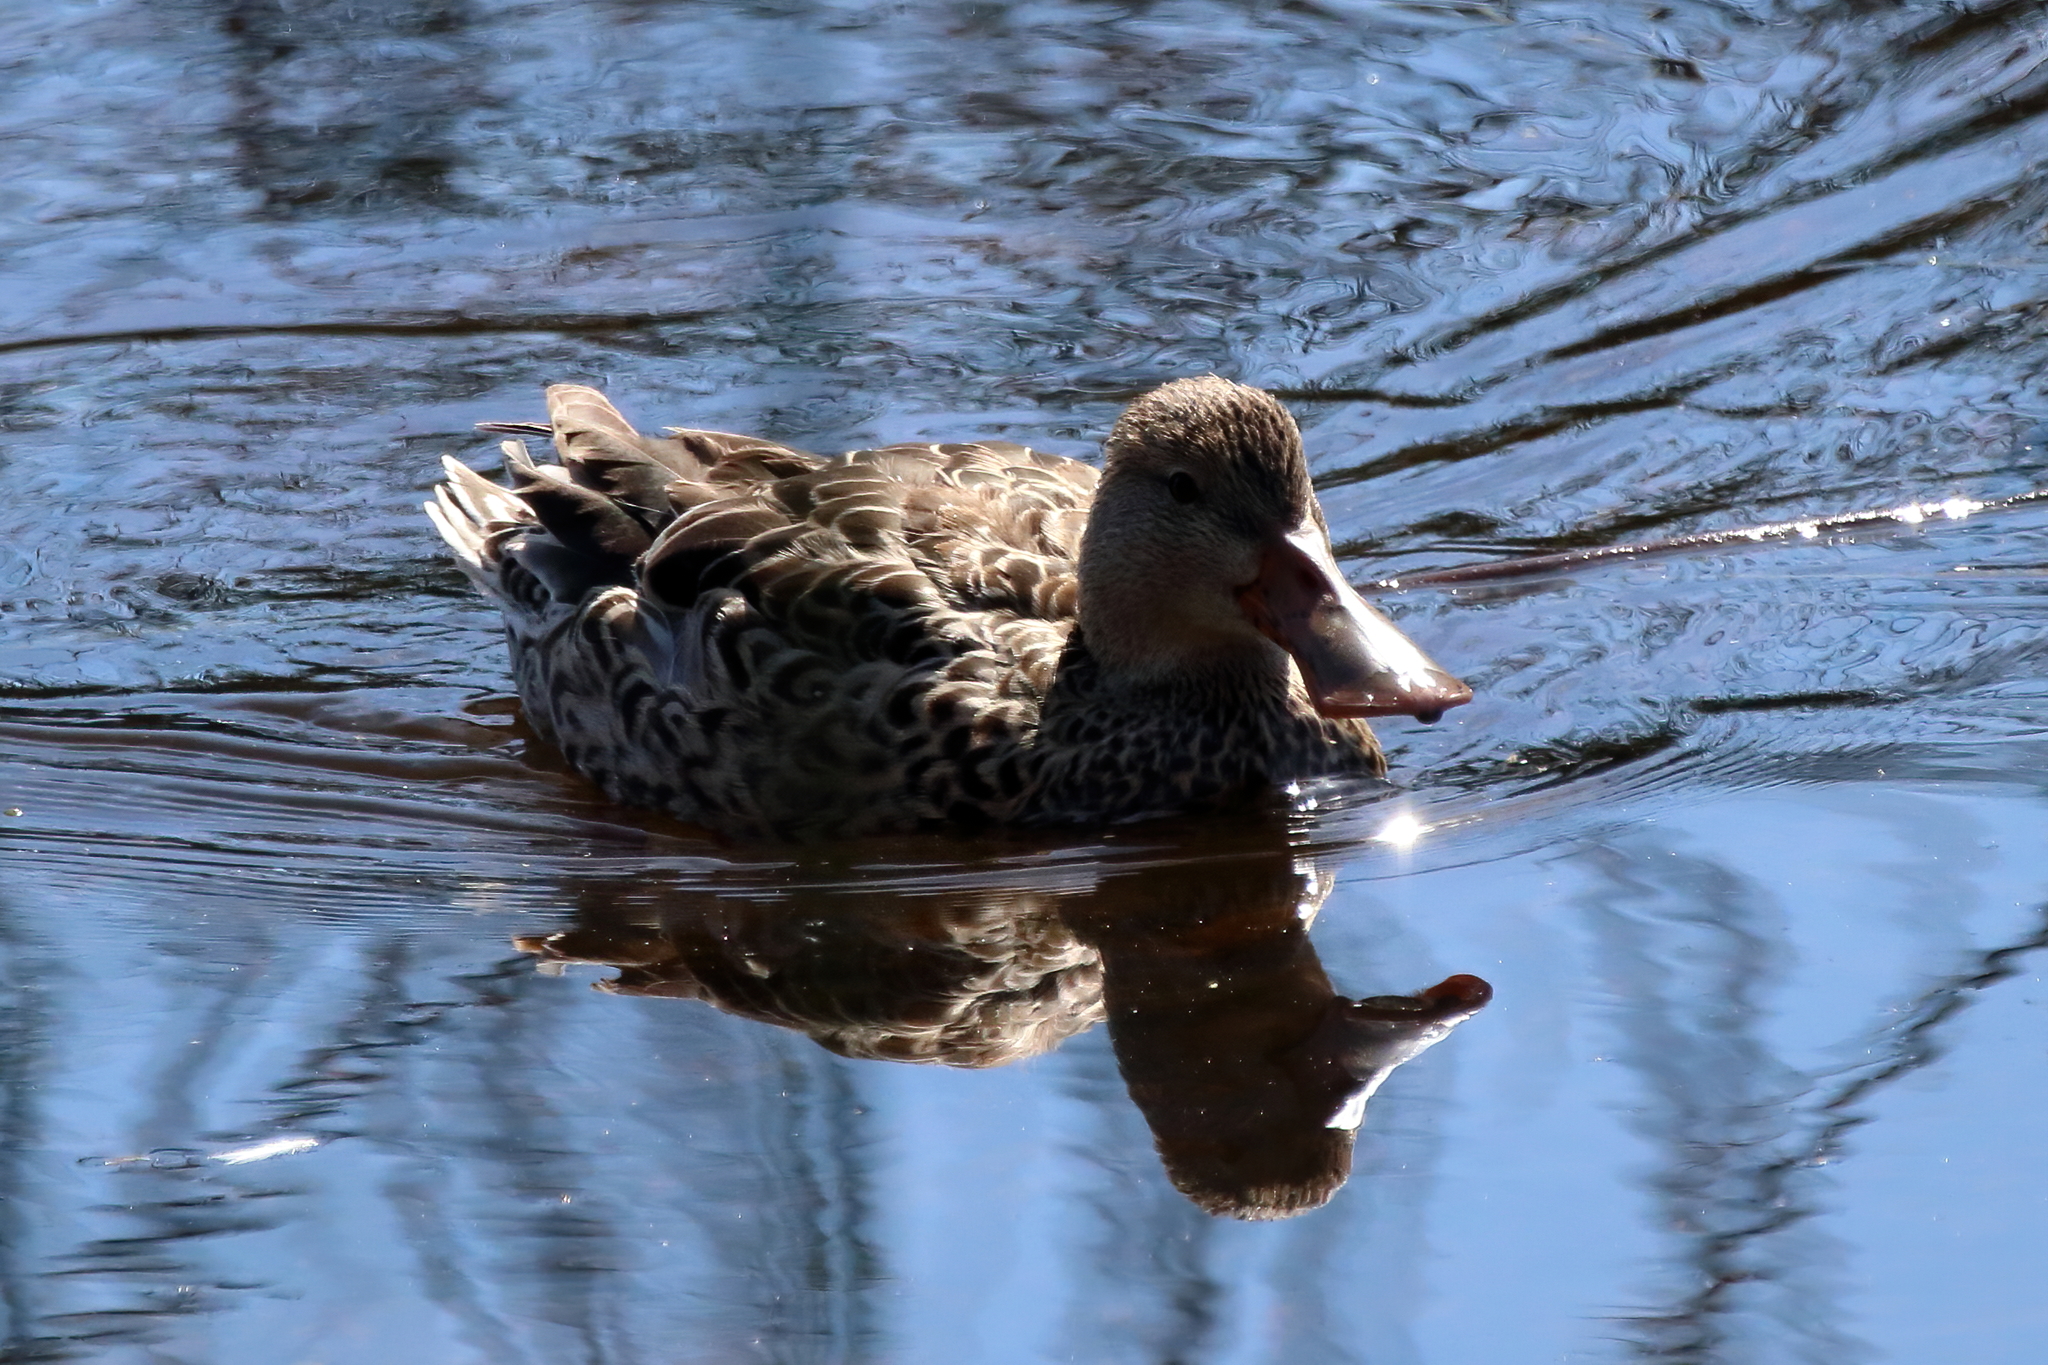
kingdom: Animalia
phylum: Chordata
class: Aves
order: Anseriformes
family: Anatidae
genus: Spatula
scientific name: Spatula clypeata
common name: Northern shoveler
